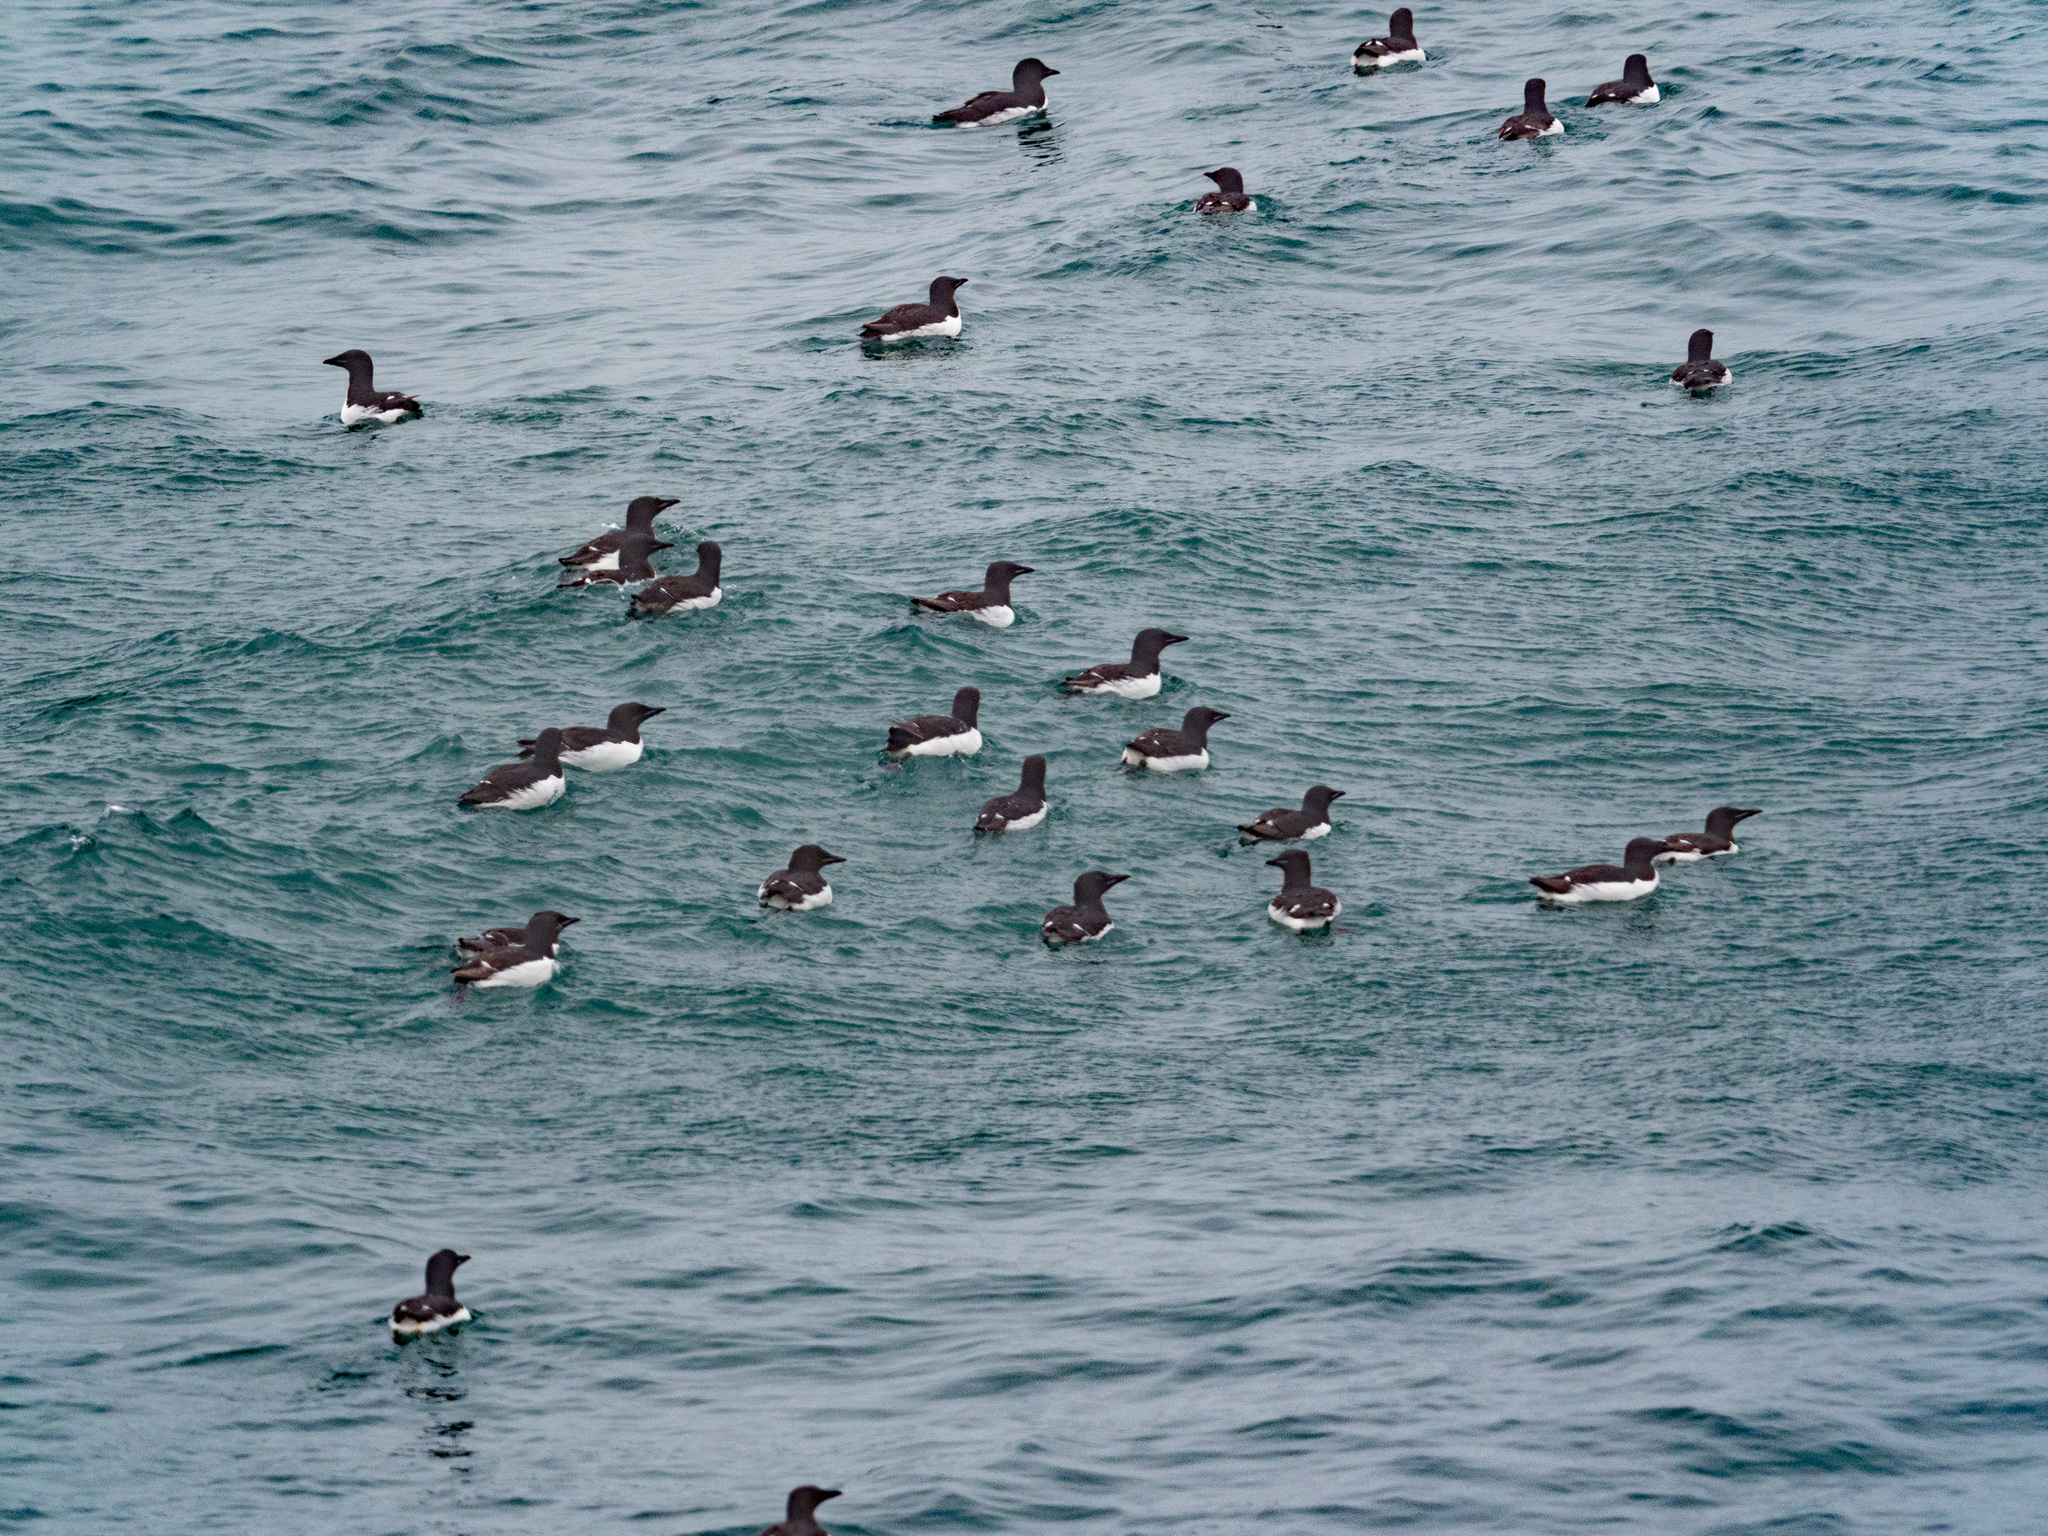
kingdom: Animalia
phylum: Chordata
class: Aves
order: Charadriiformes
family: Alcidae
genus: Uria
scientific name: Uria lomvia
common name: Thick-billed murre
